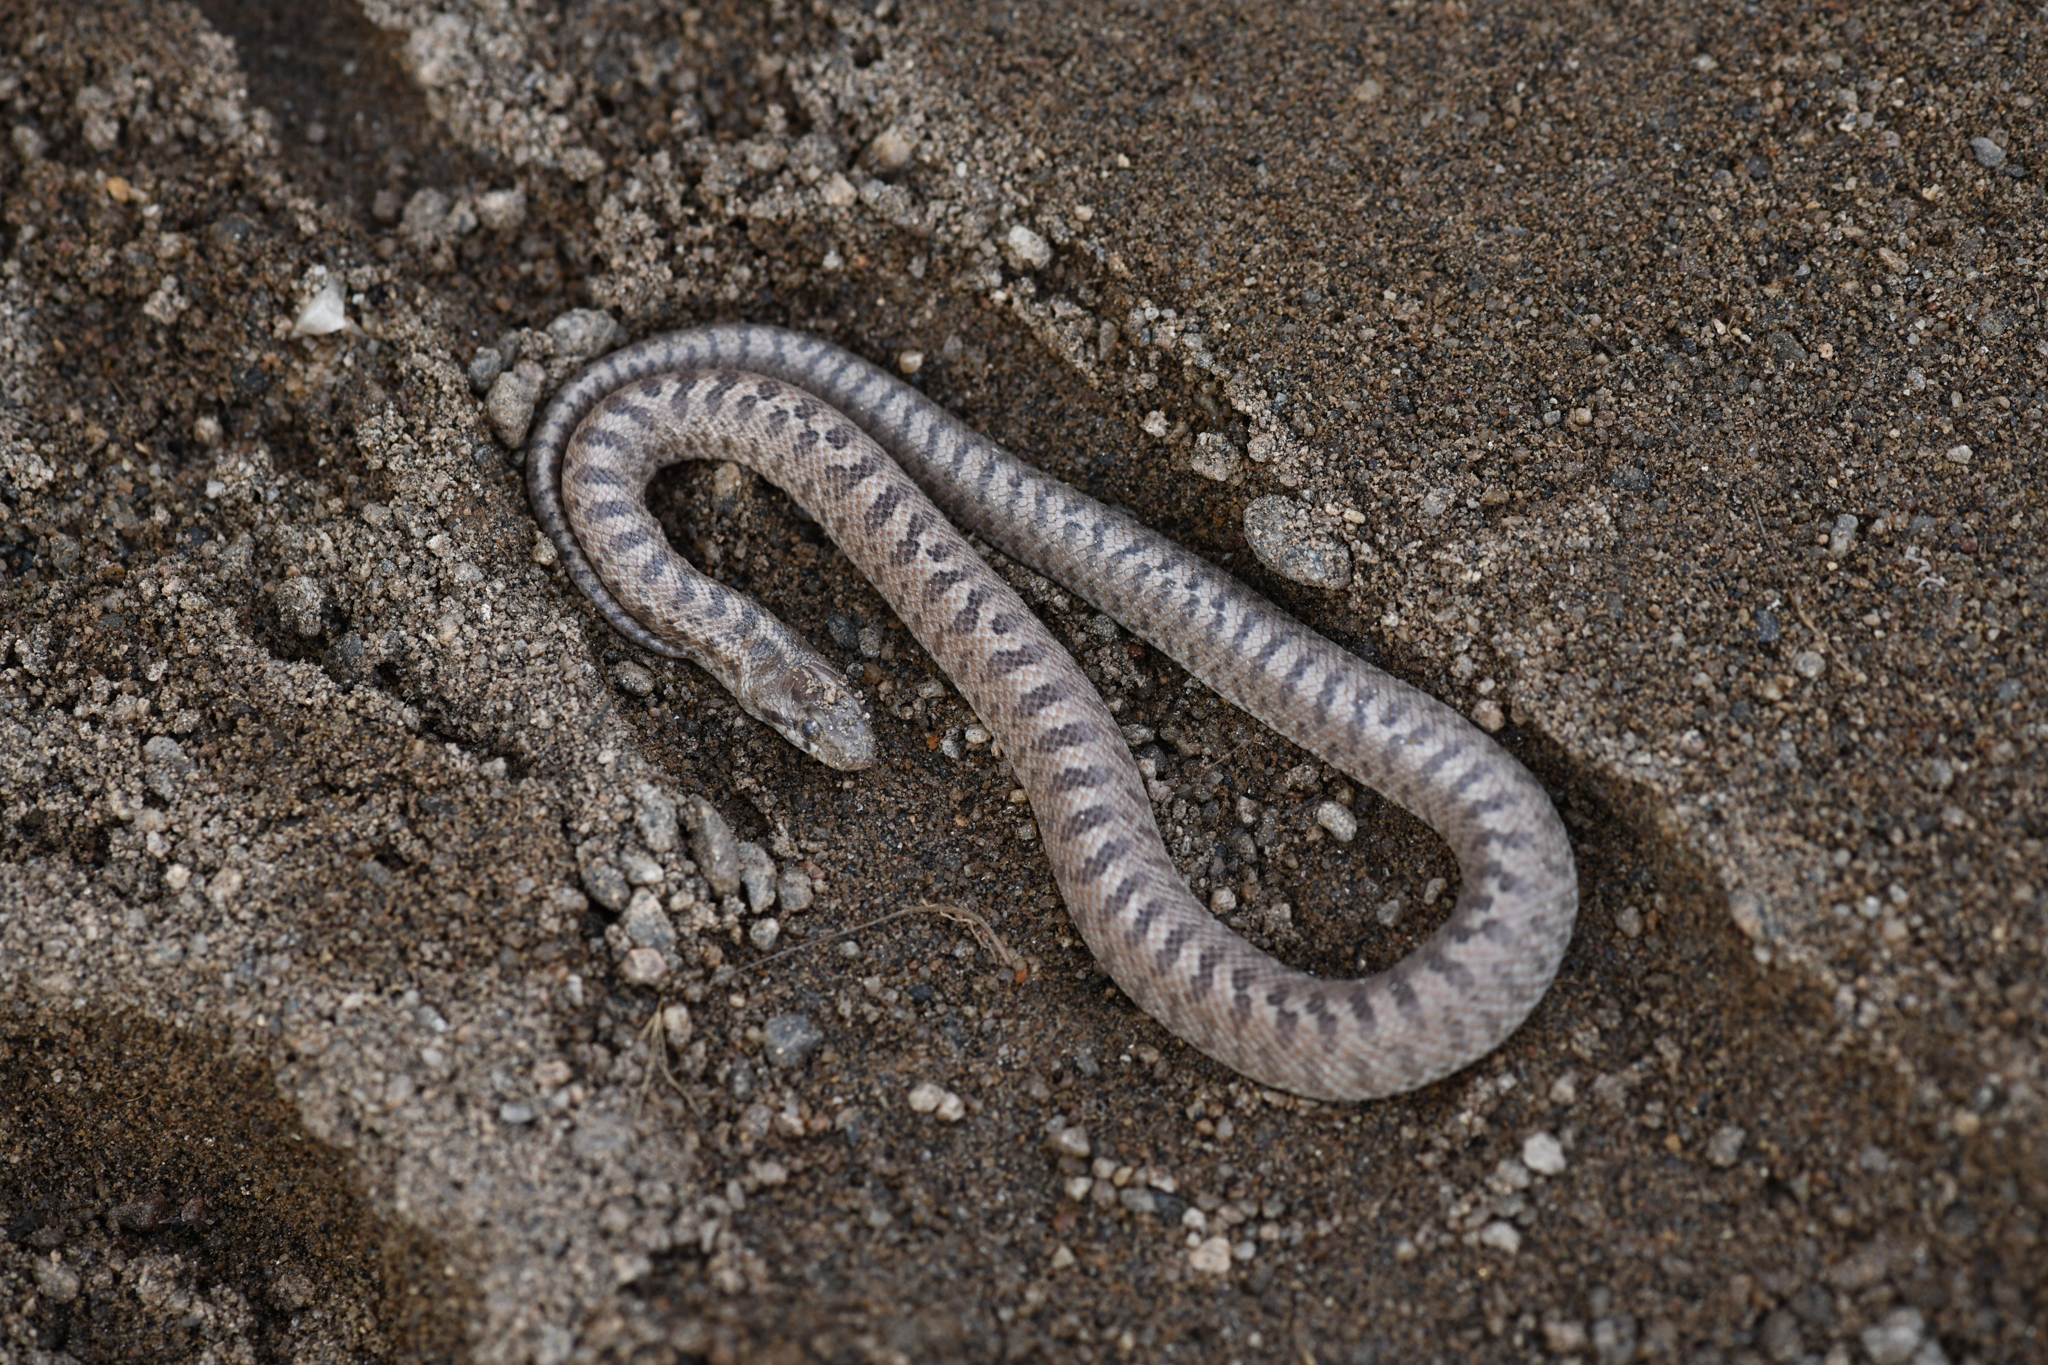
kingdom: Animalia
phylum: Chordata
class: Squamata
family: Colubridae
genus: Arizona
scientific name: Arizona elegans
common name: Glossy snake
